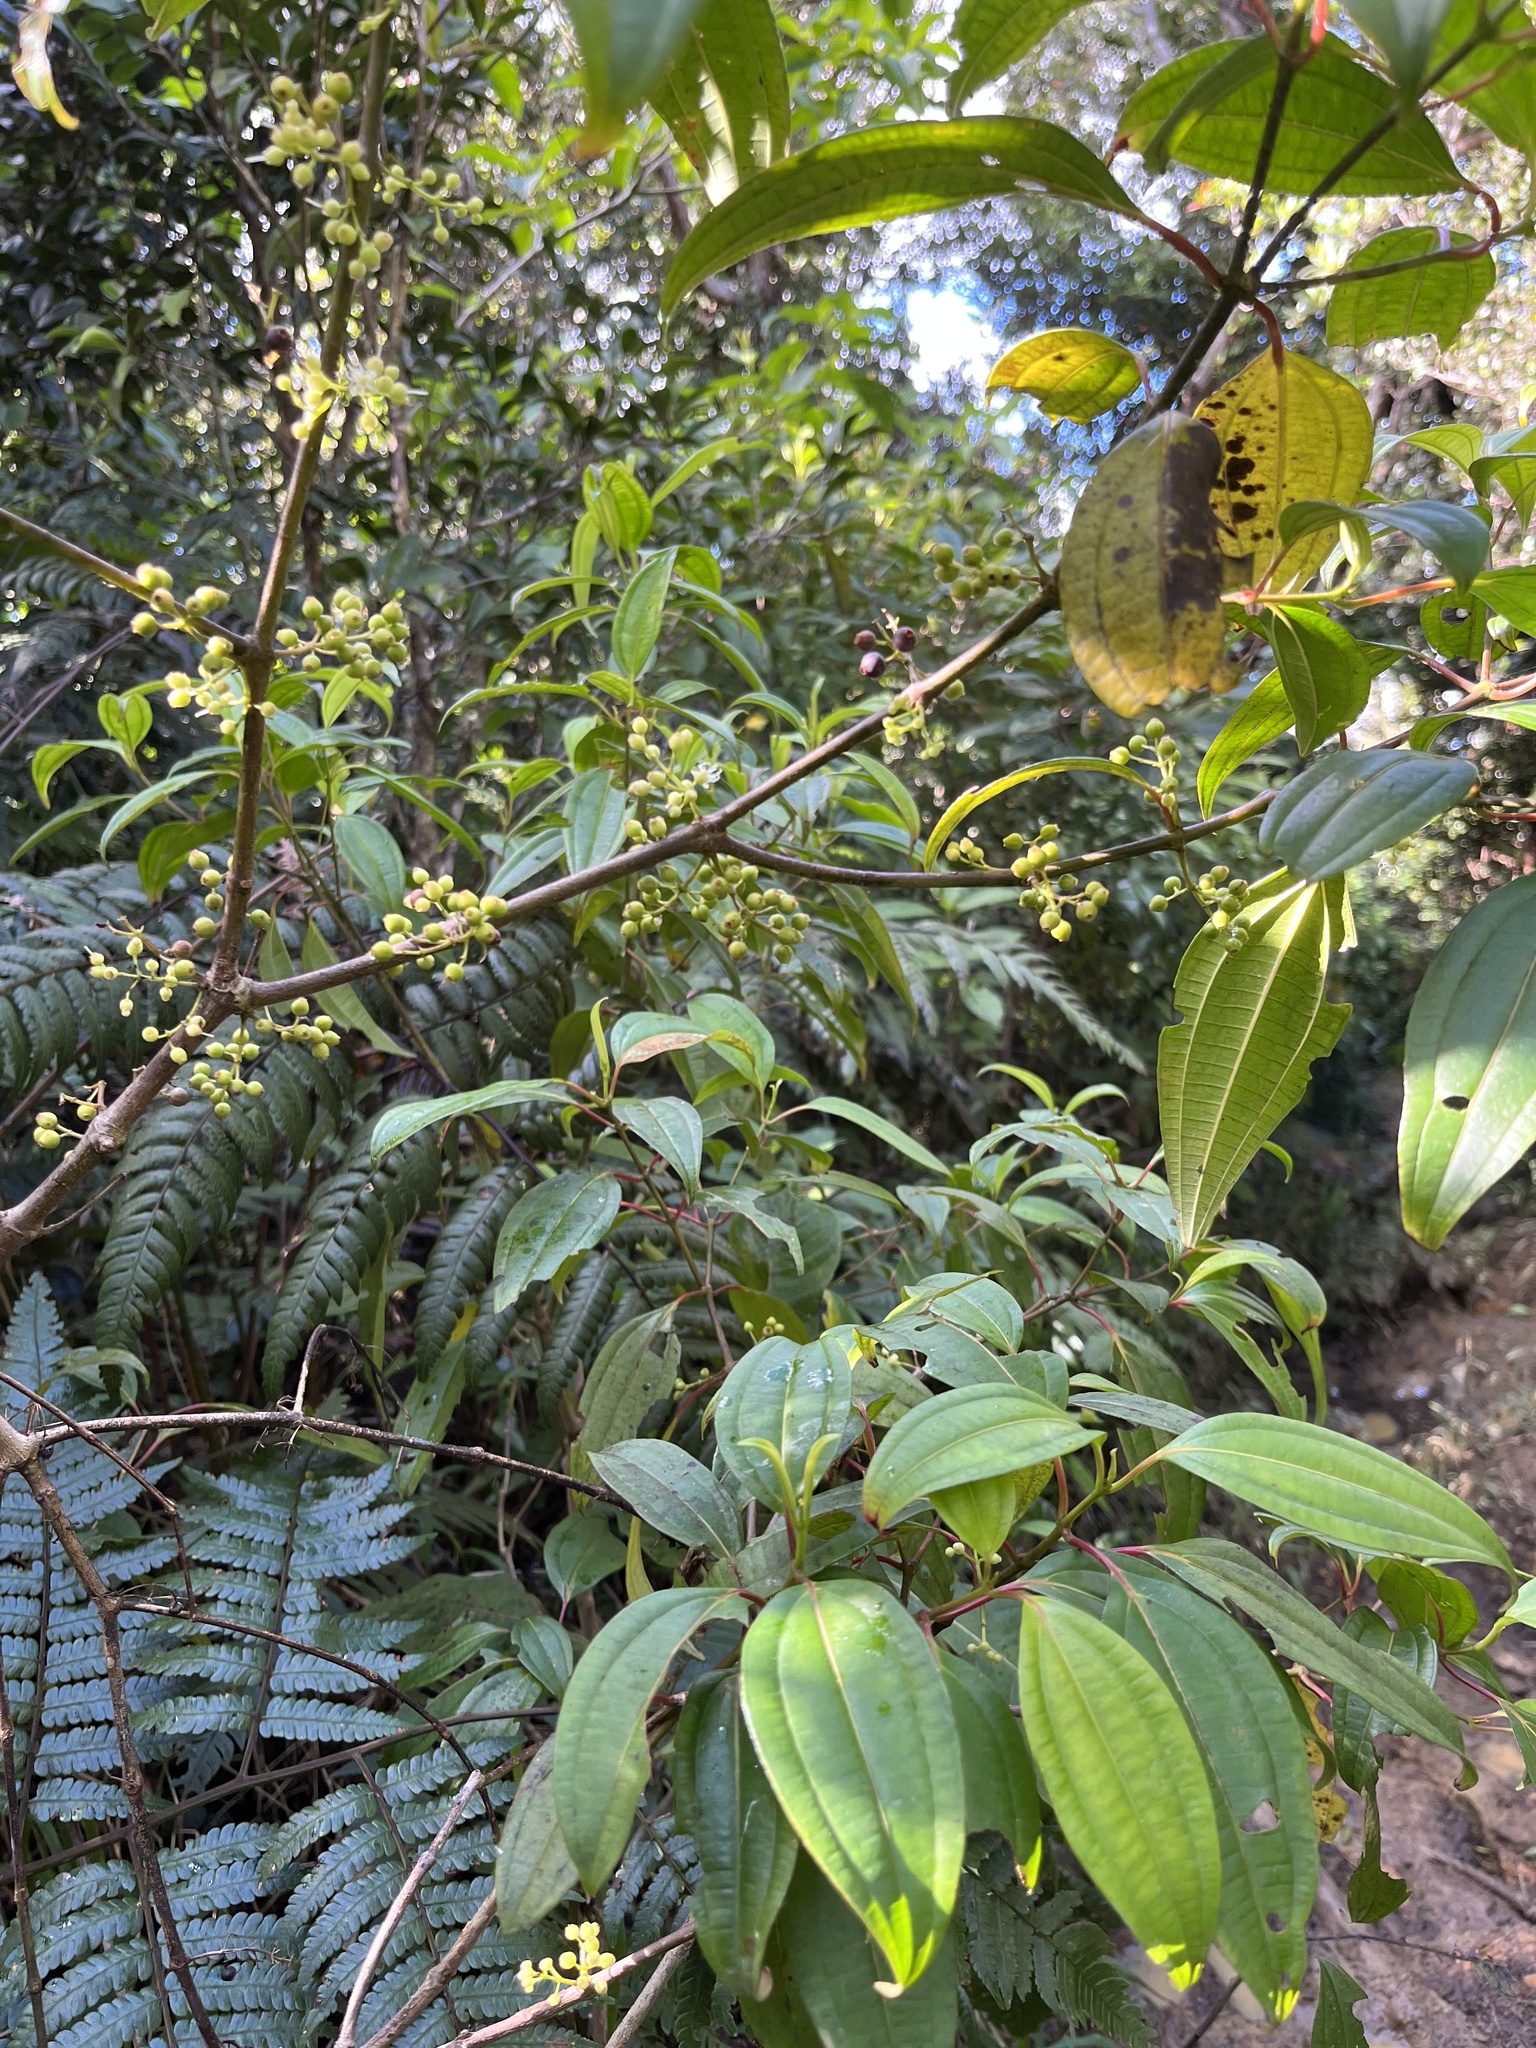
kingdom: Plantae
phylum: Tracheophyta
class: Magnoliopsida
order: Myrtales
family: Melastomataceae
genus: Miconia
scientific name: Miconia borinquensis
